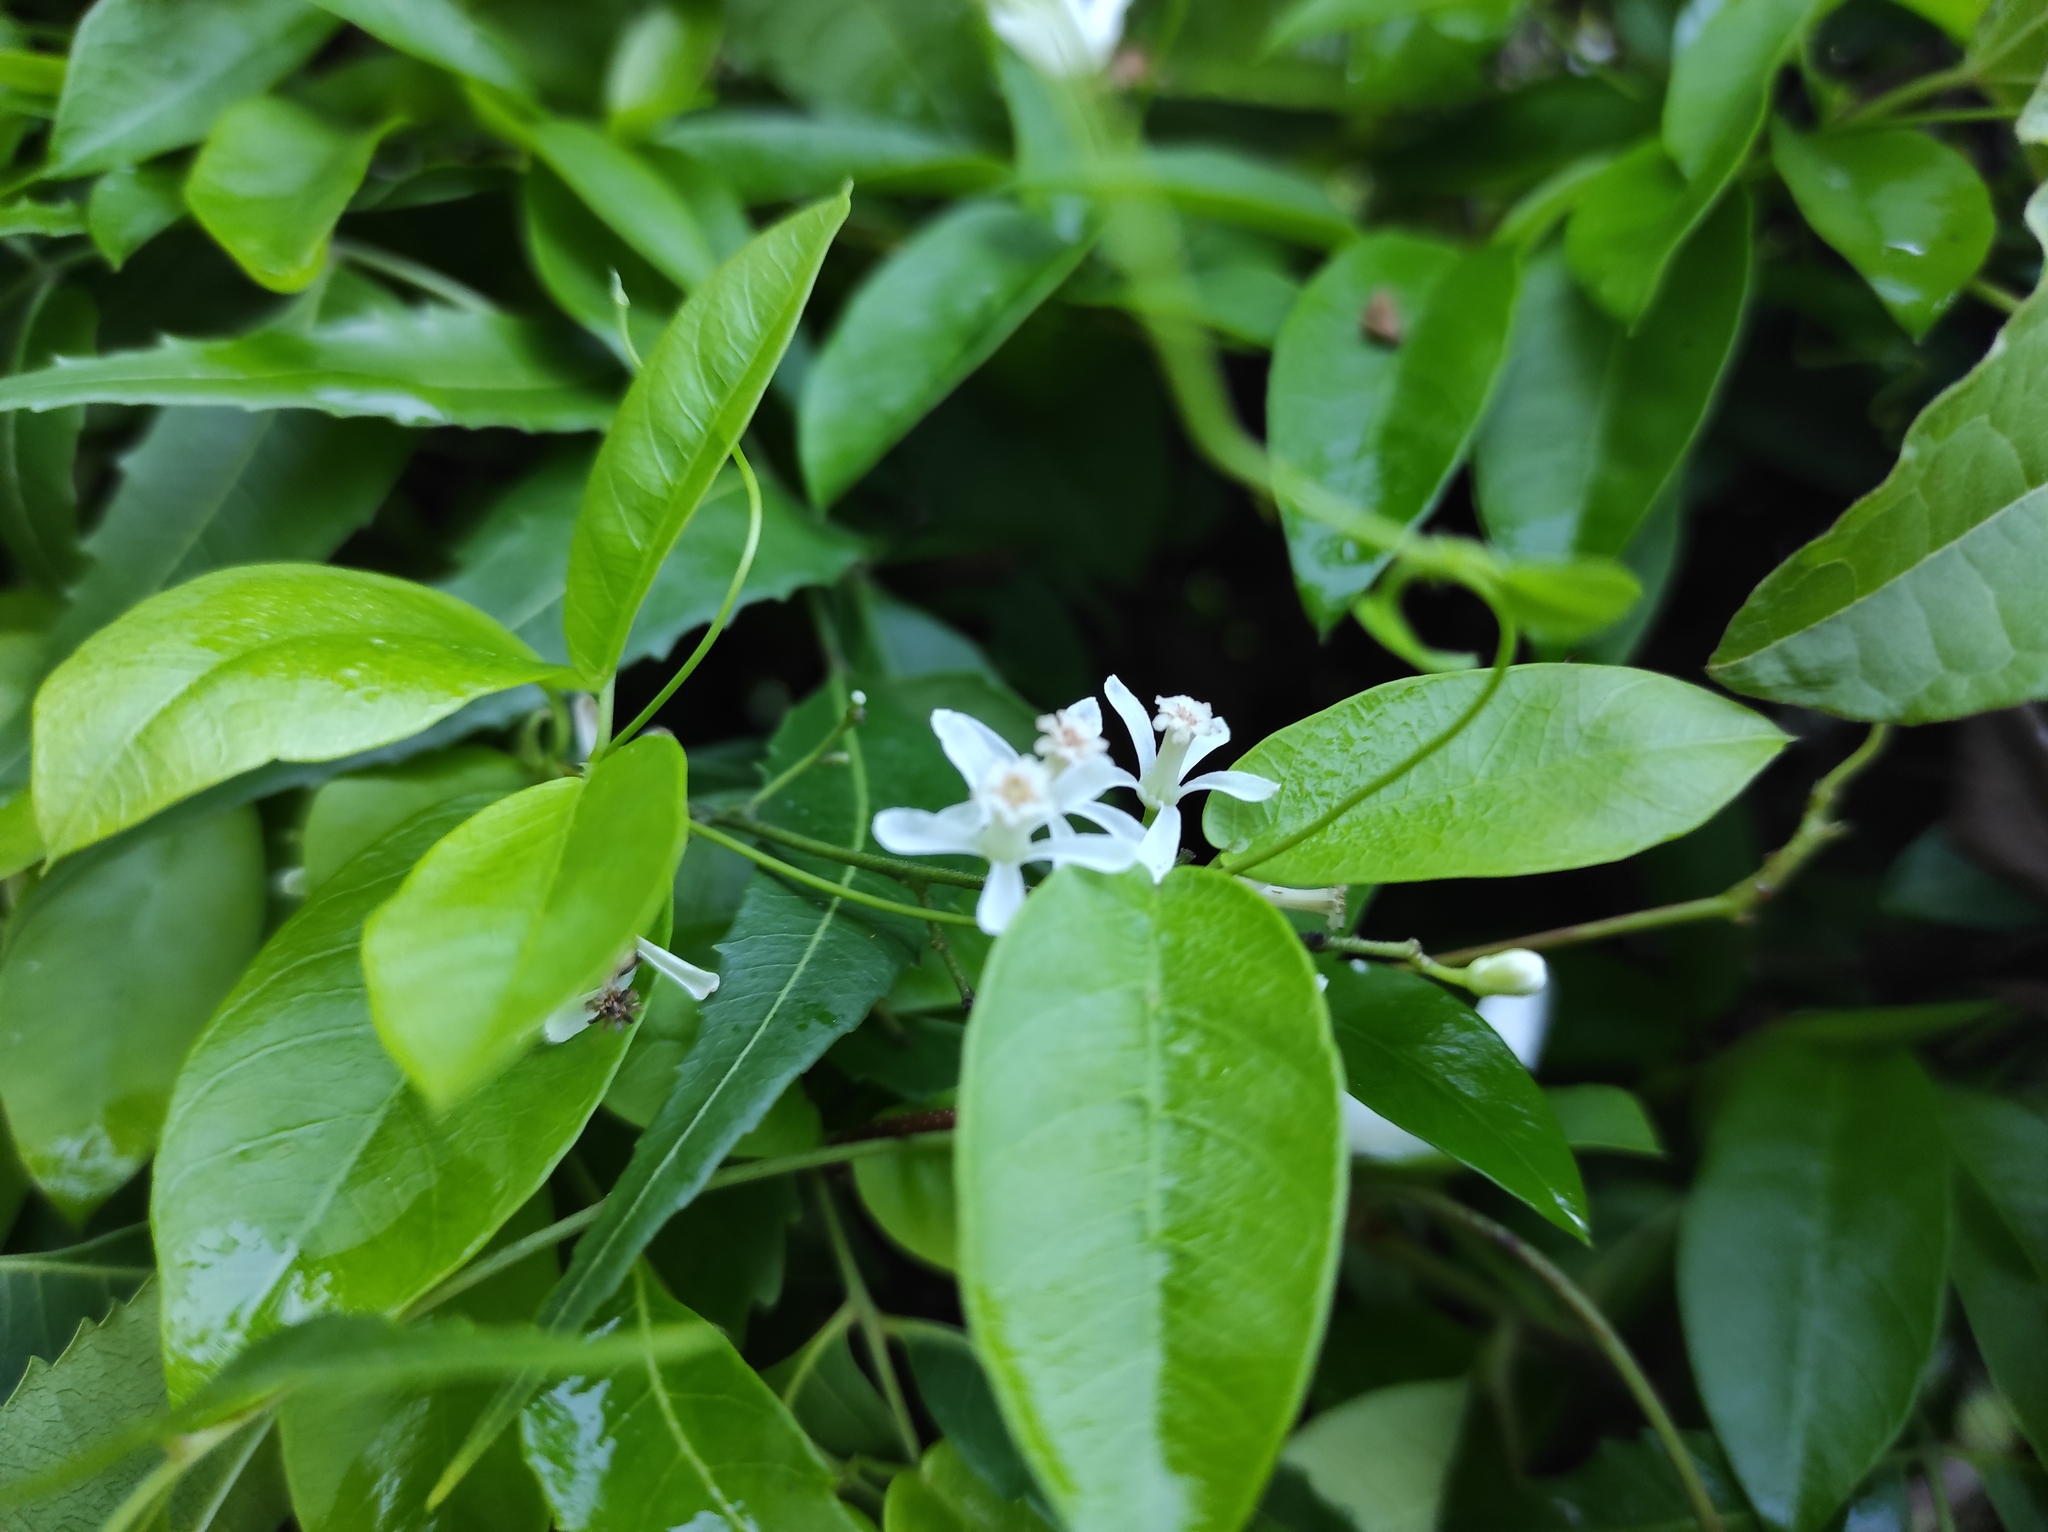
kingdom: Plantae
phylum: Tracheophyta
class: Magnoliopsida
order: Sapindales
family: Meliaceae
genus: Azadirachta
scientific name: Azadirachta indica
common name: Neem
